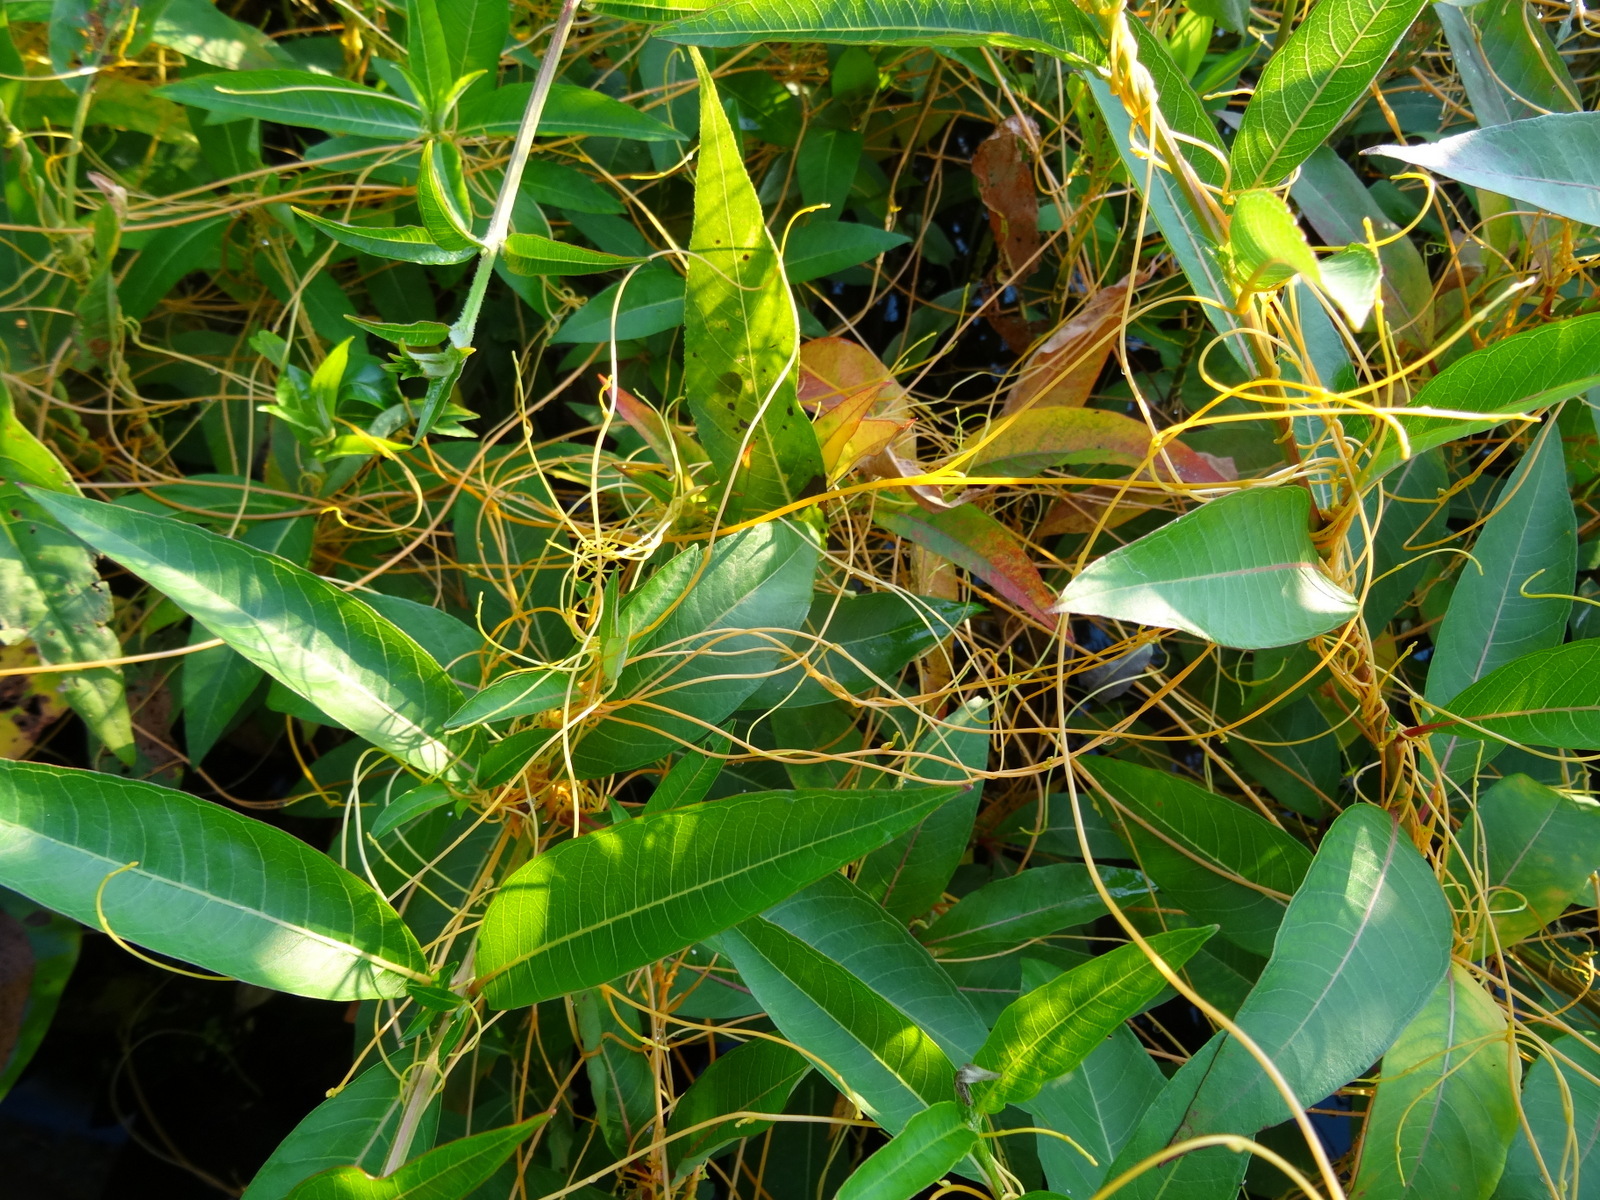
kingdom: Plantae
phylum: Tracheophyta
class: Magnoliopsida
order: Solanales
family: Convolvulaceae
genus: Cuscuta
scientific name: Cuscuta gronovii
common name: Common dodder
